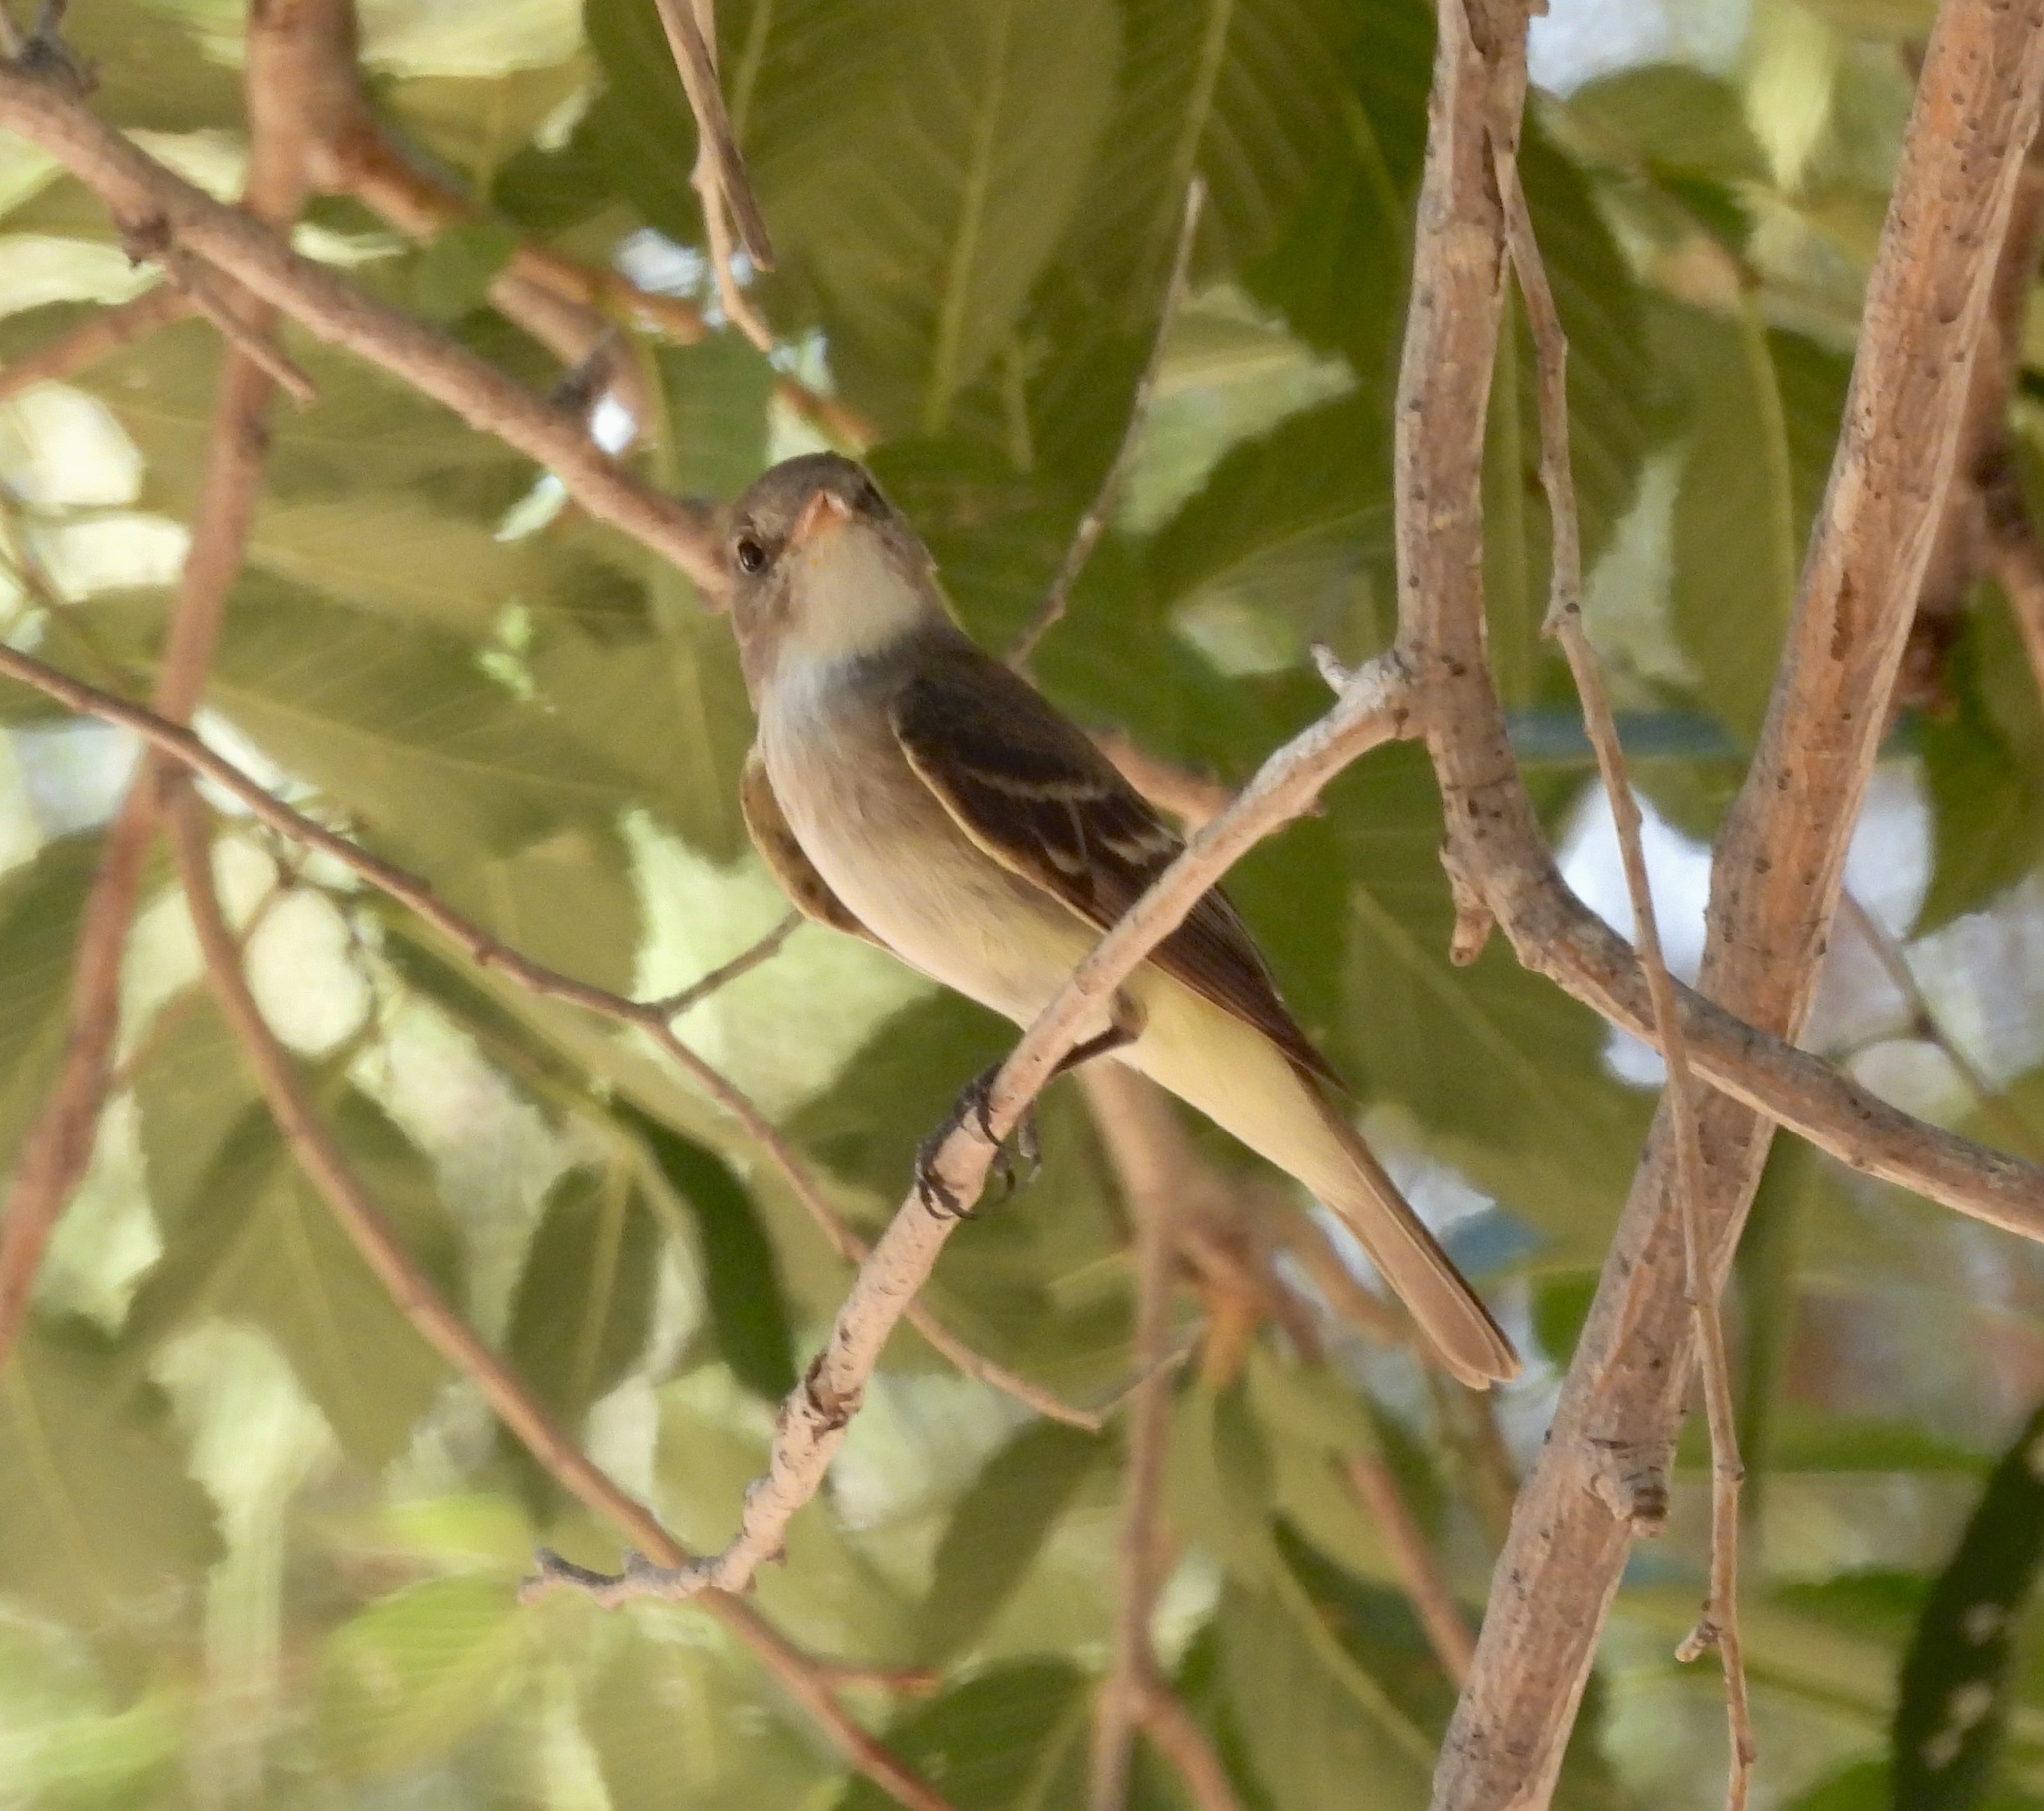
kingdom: Animalia
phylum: Chordata
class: Aves
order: Passeriformes
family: Tyrannidae
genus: Empidonax
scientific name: Empidonax traillii
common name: Willow flycatcher
